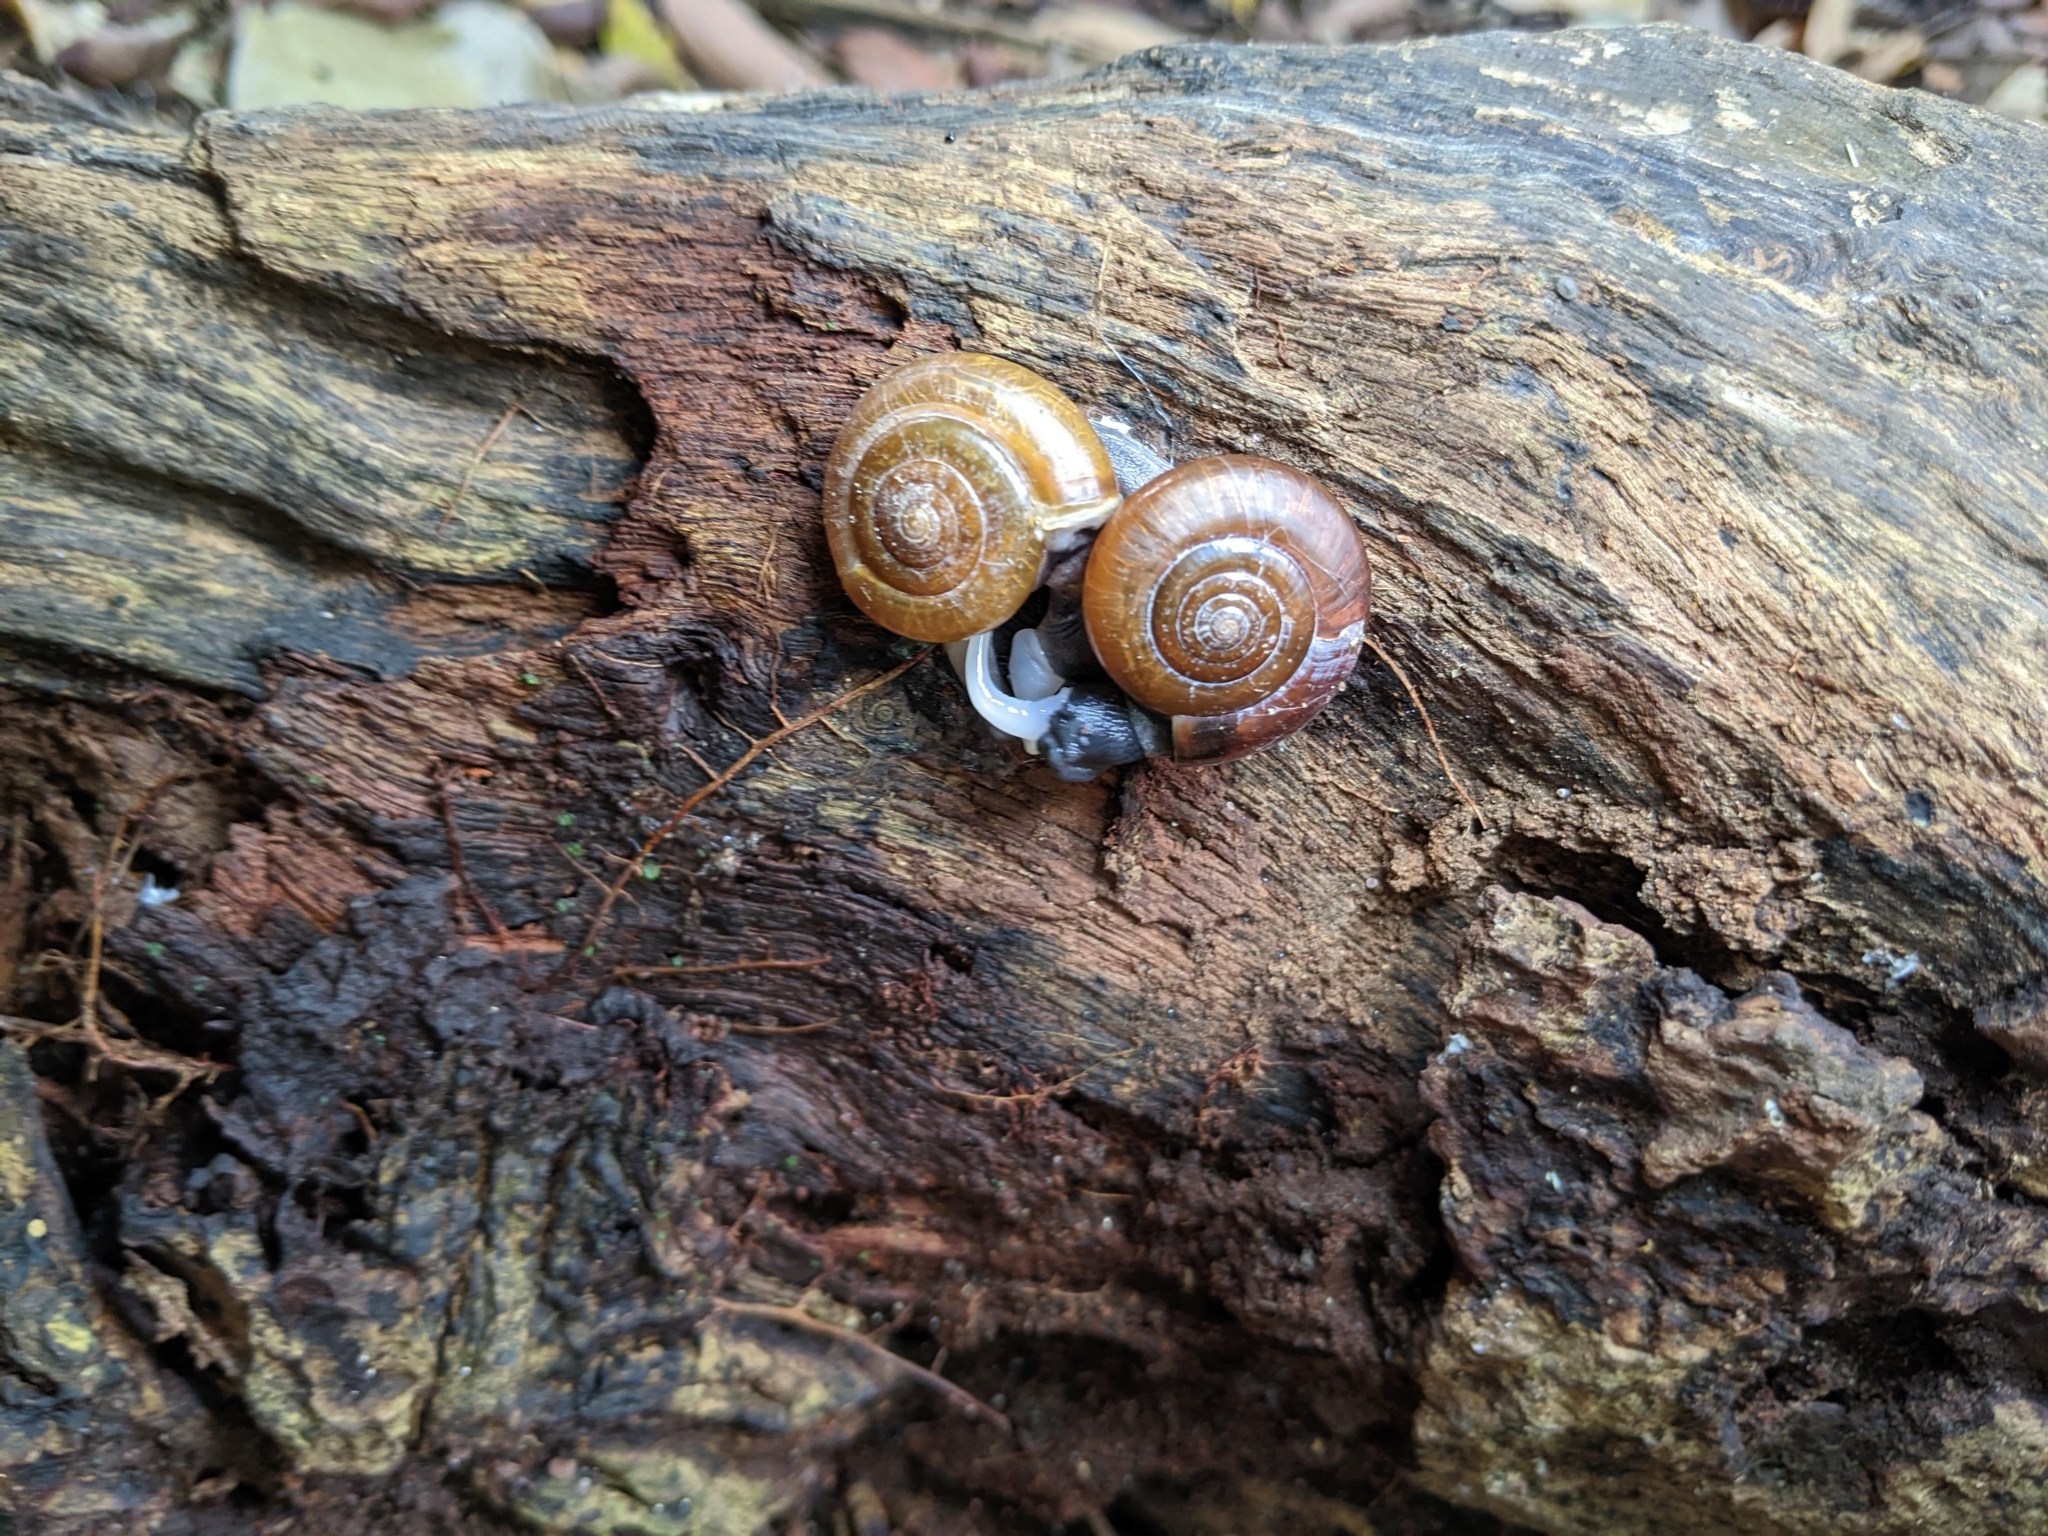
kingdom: Animalia
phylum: Mollusca
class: Gastropoda
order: Stylommatophora
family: Ariophantidae
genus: Sarika
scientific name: Sarika resplendens
